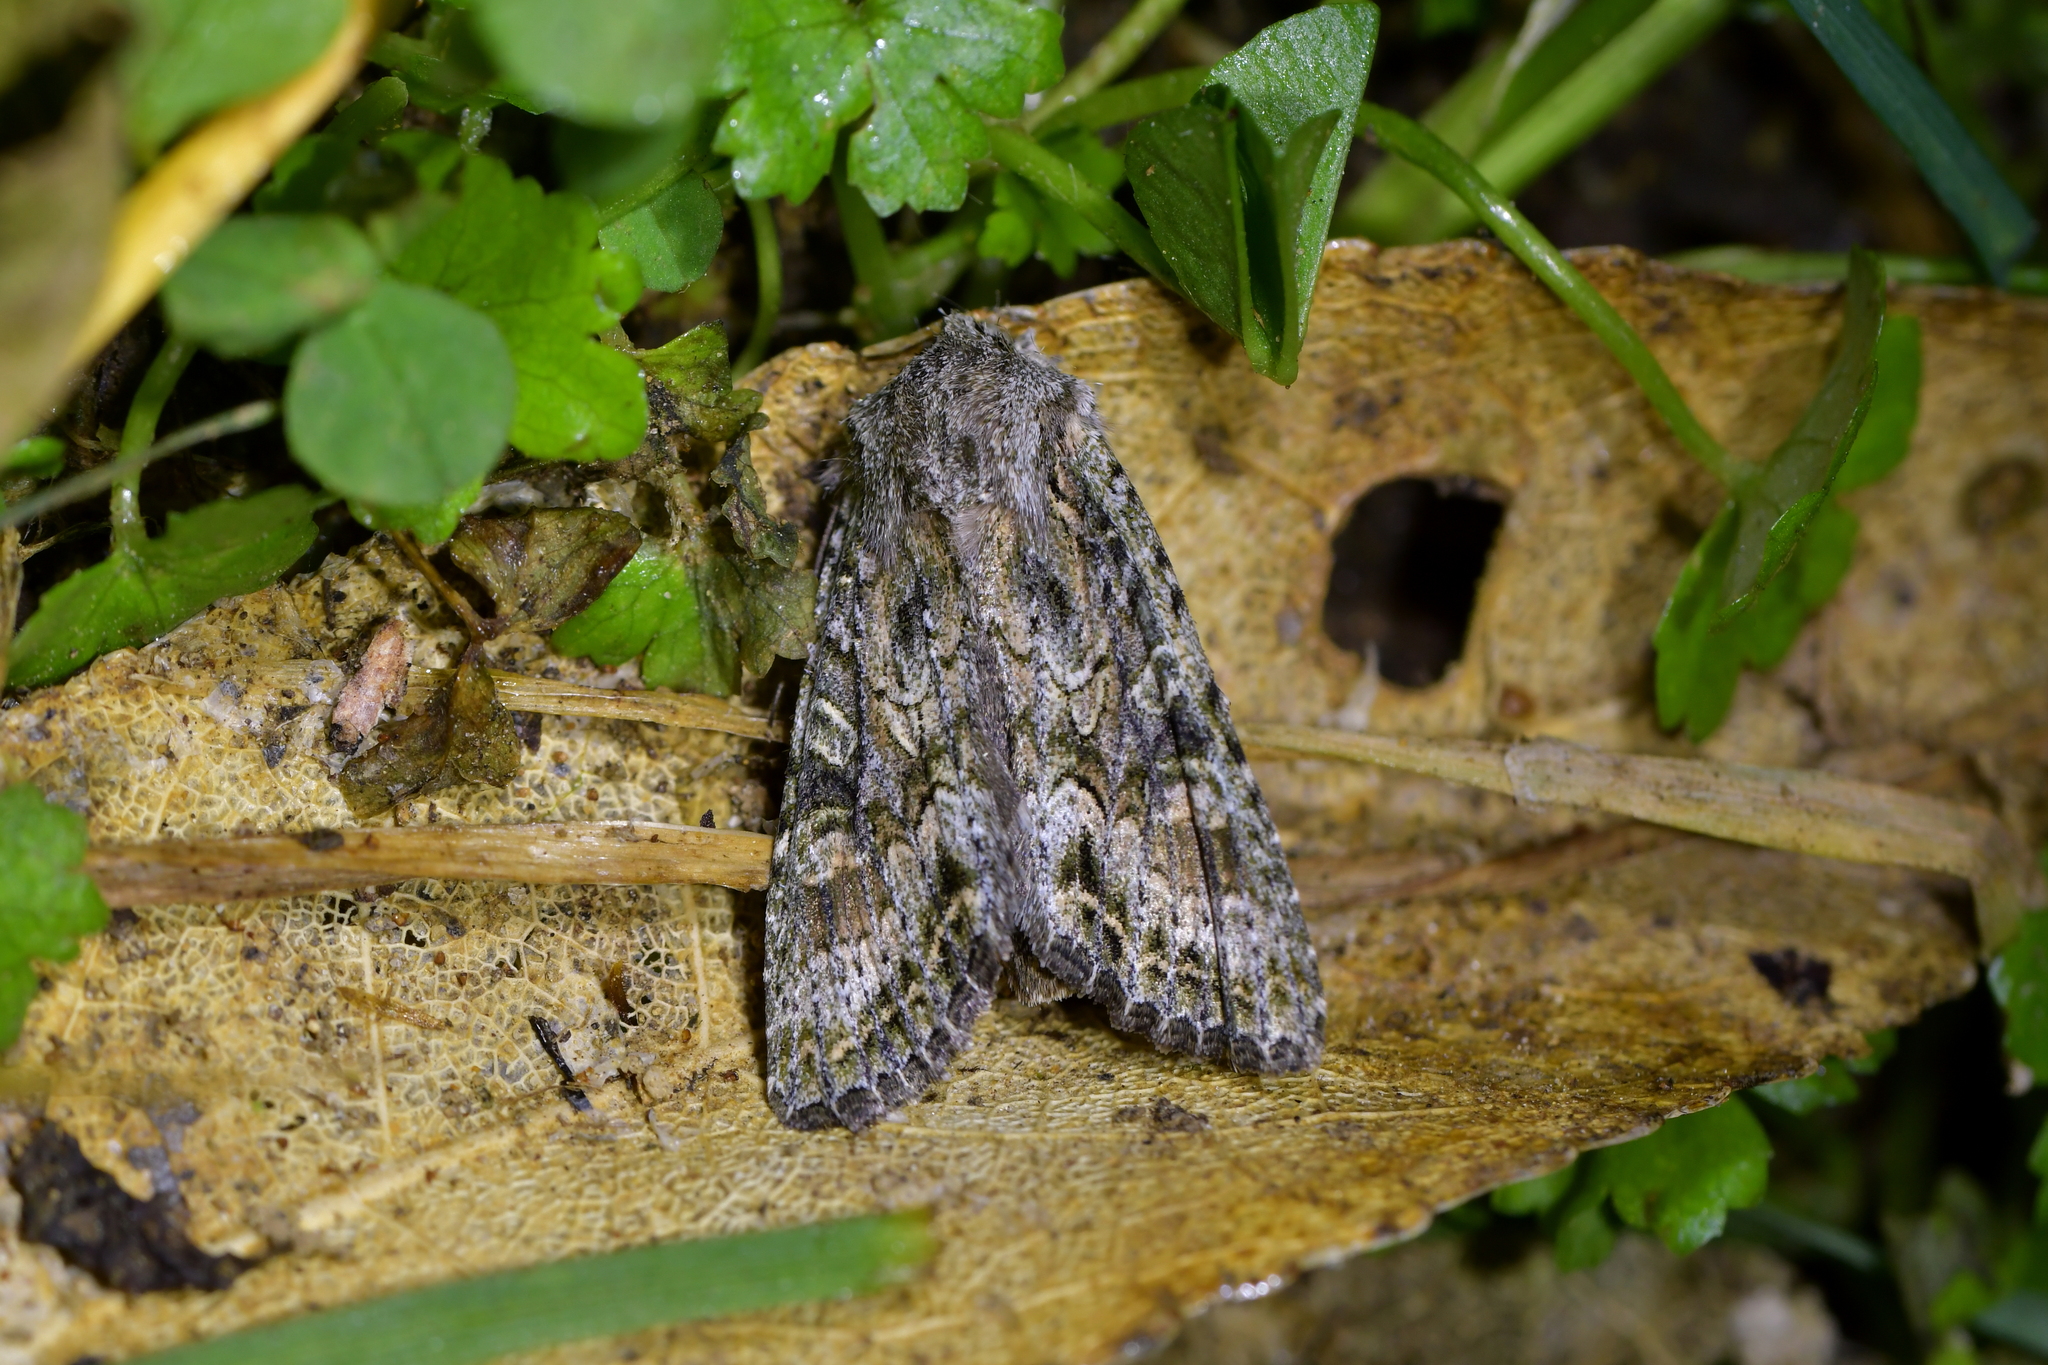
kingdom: Animalia
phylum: Arthropoda
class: Insecta
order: Lepidoptera
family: Noctuidae
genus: Ichneutica
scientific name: Ichneutica mutans
